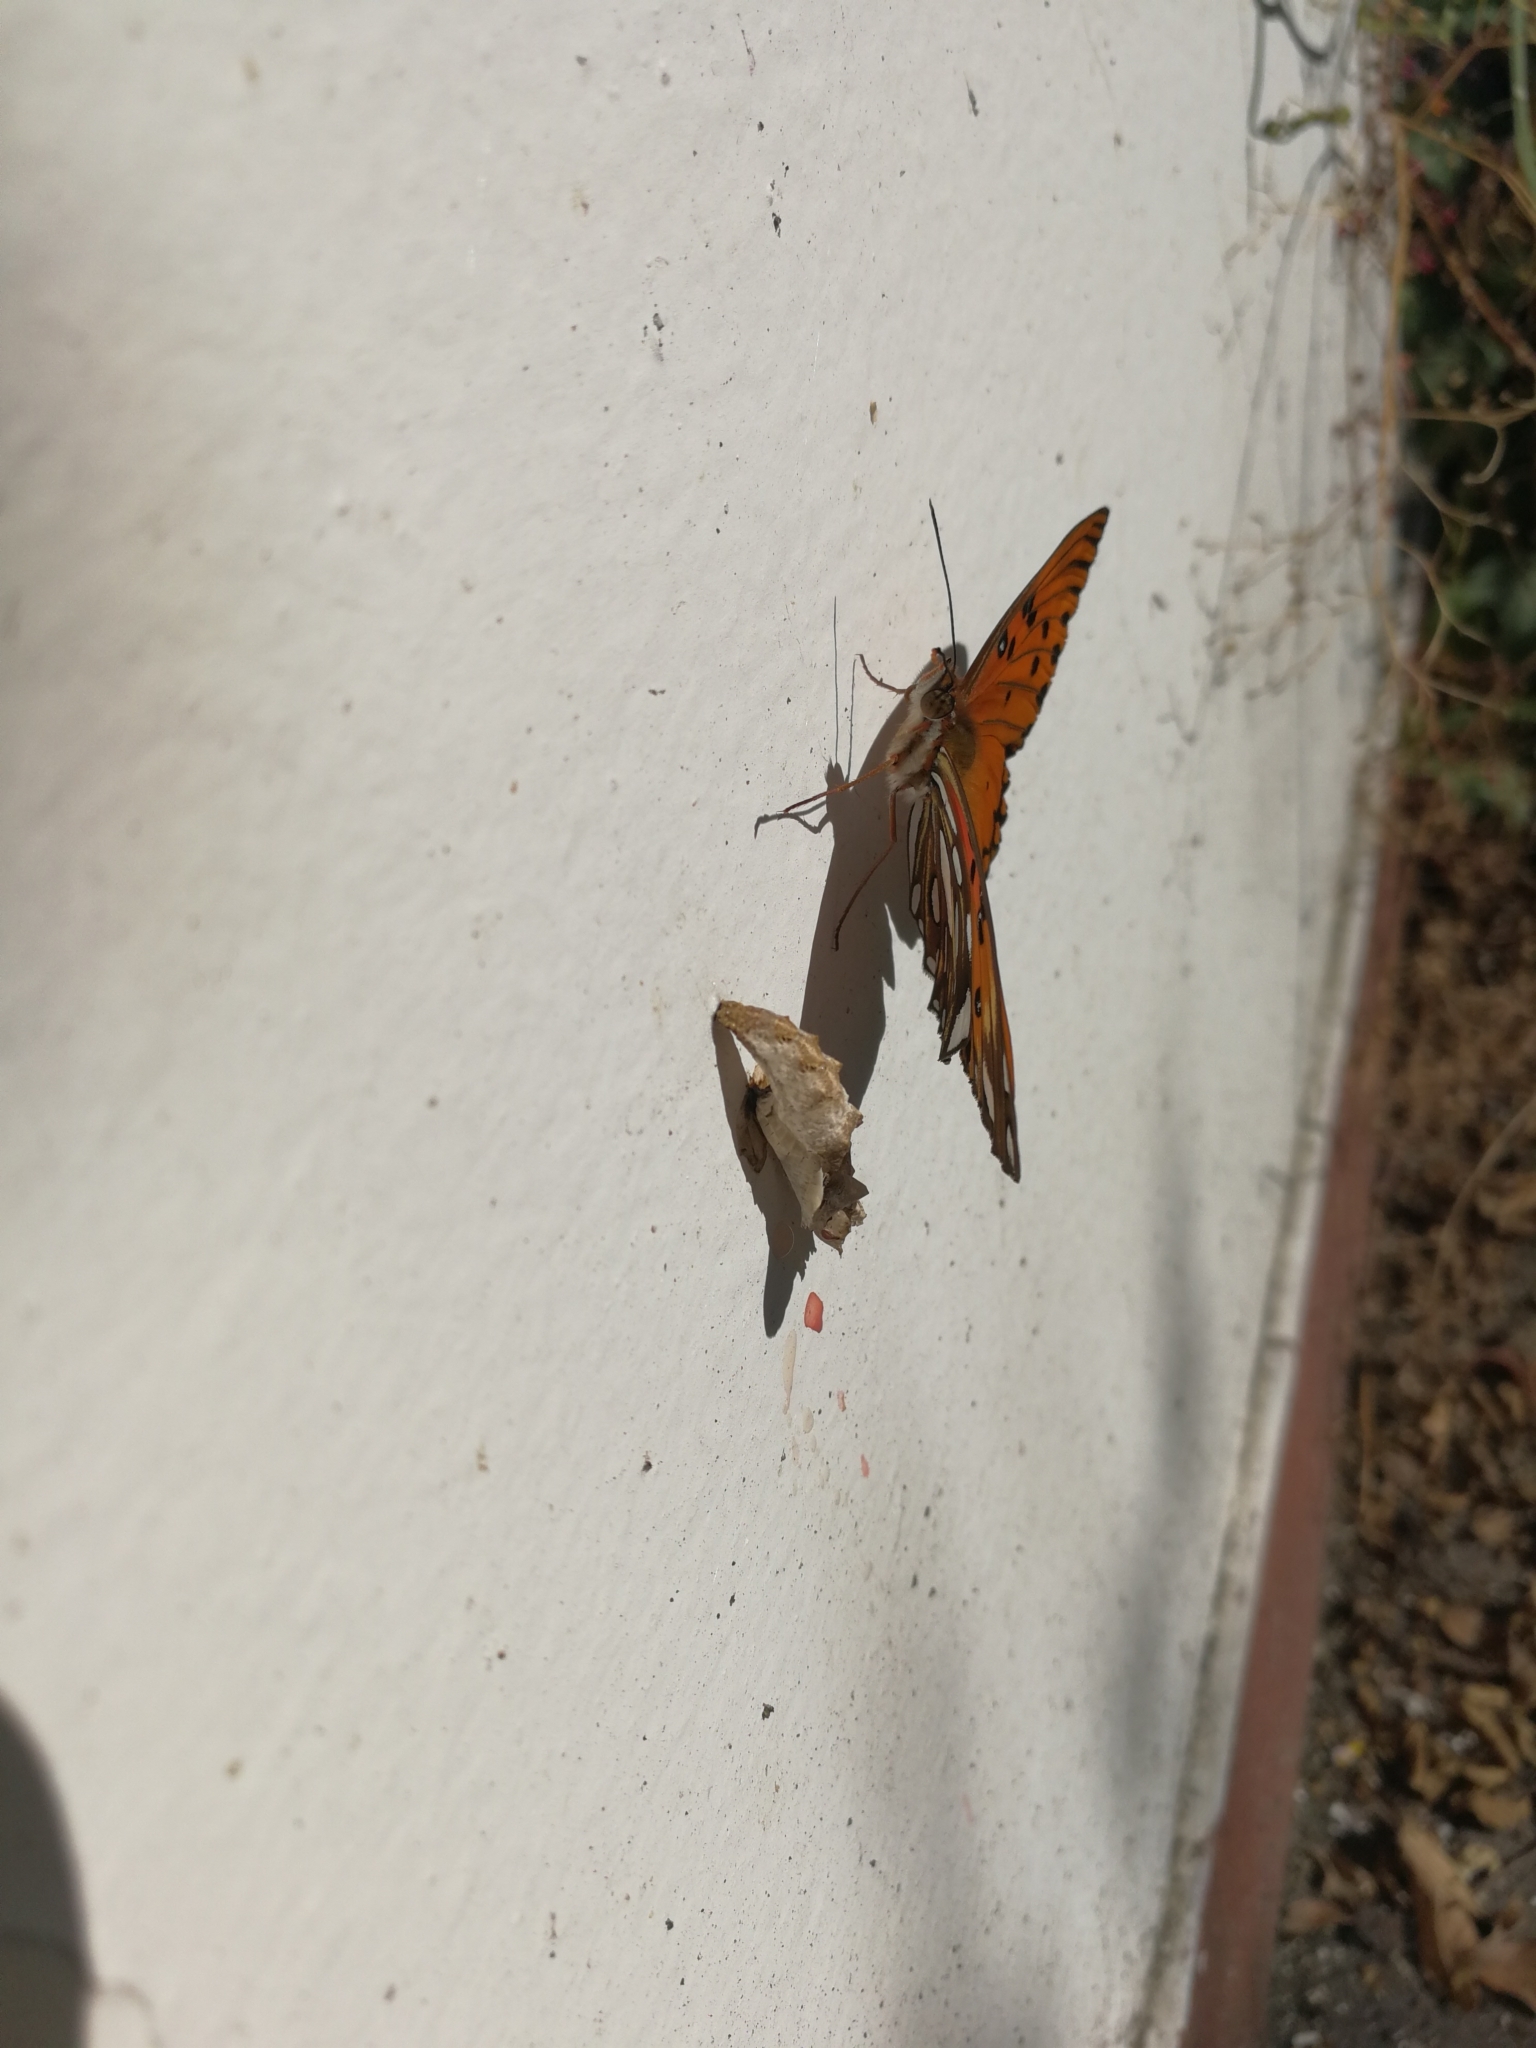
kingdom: Animalia
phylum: Arthropoda
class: Insecta
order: Lepidoptera
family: Nymphalidae
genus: Dione
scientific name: Dione vanillae
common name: Gulf fritillary
